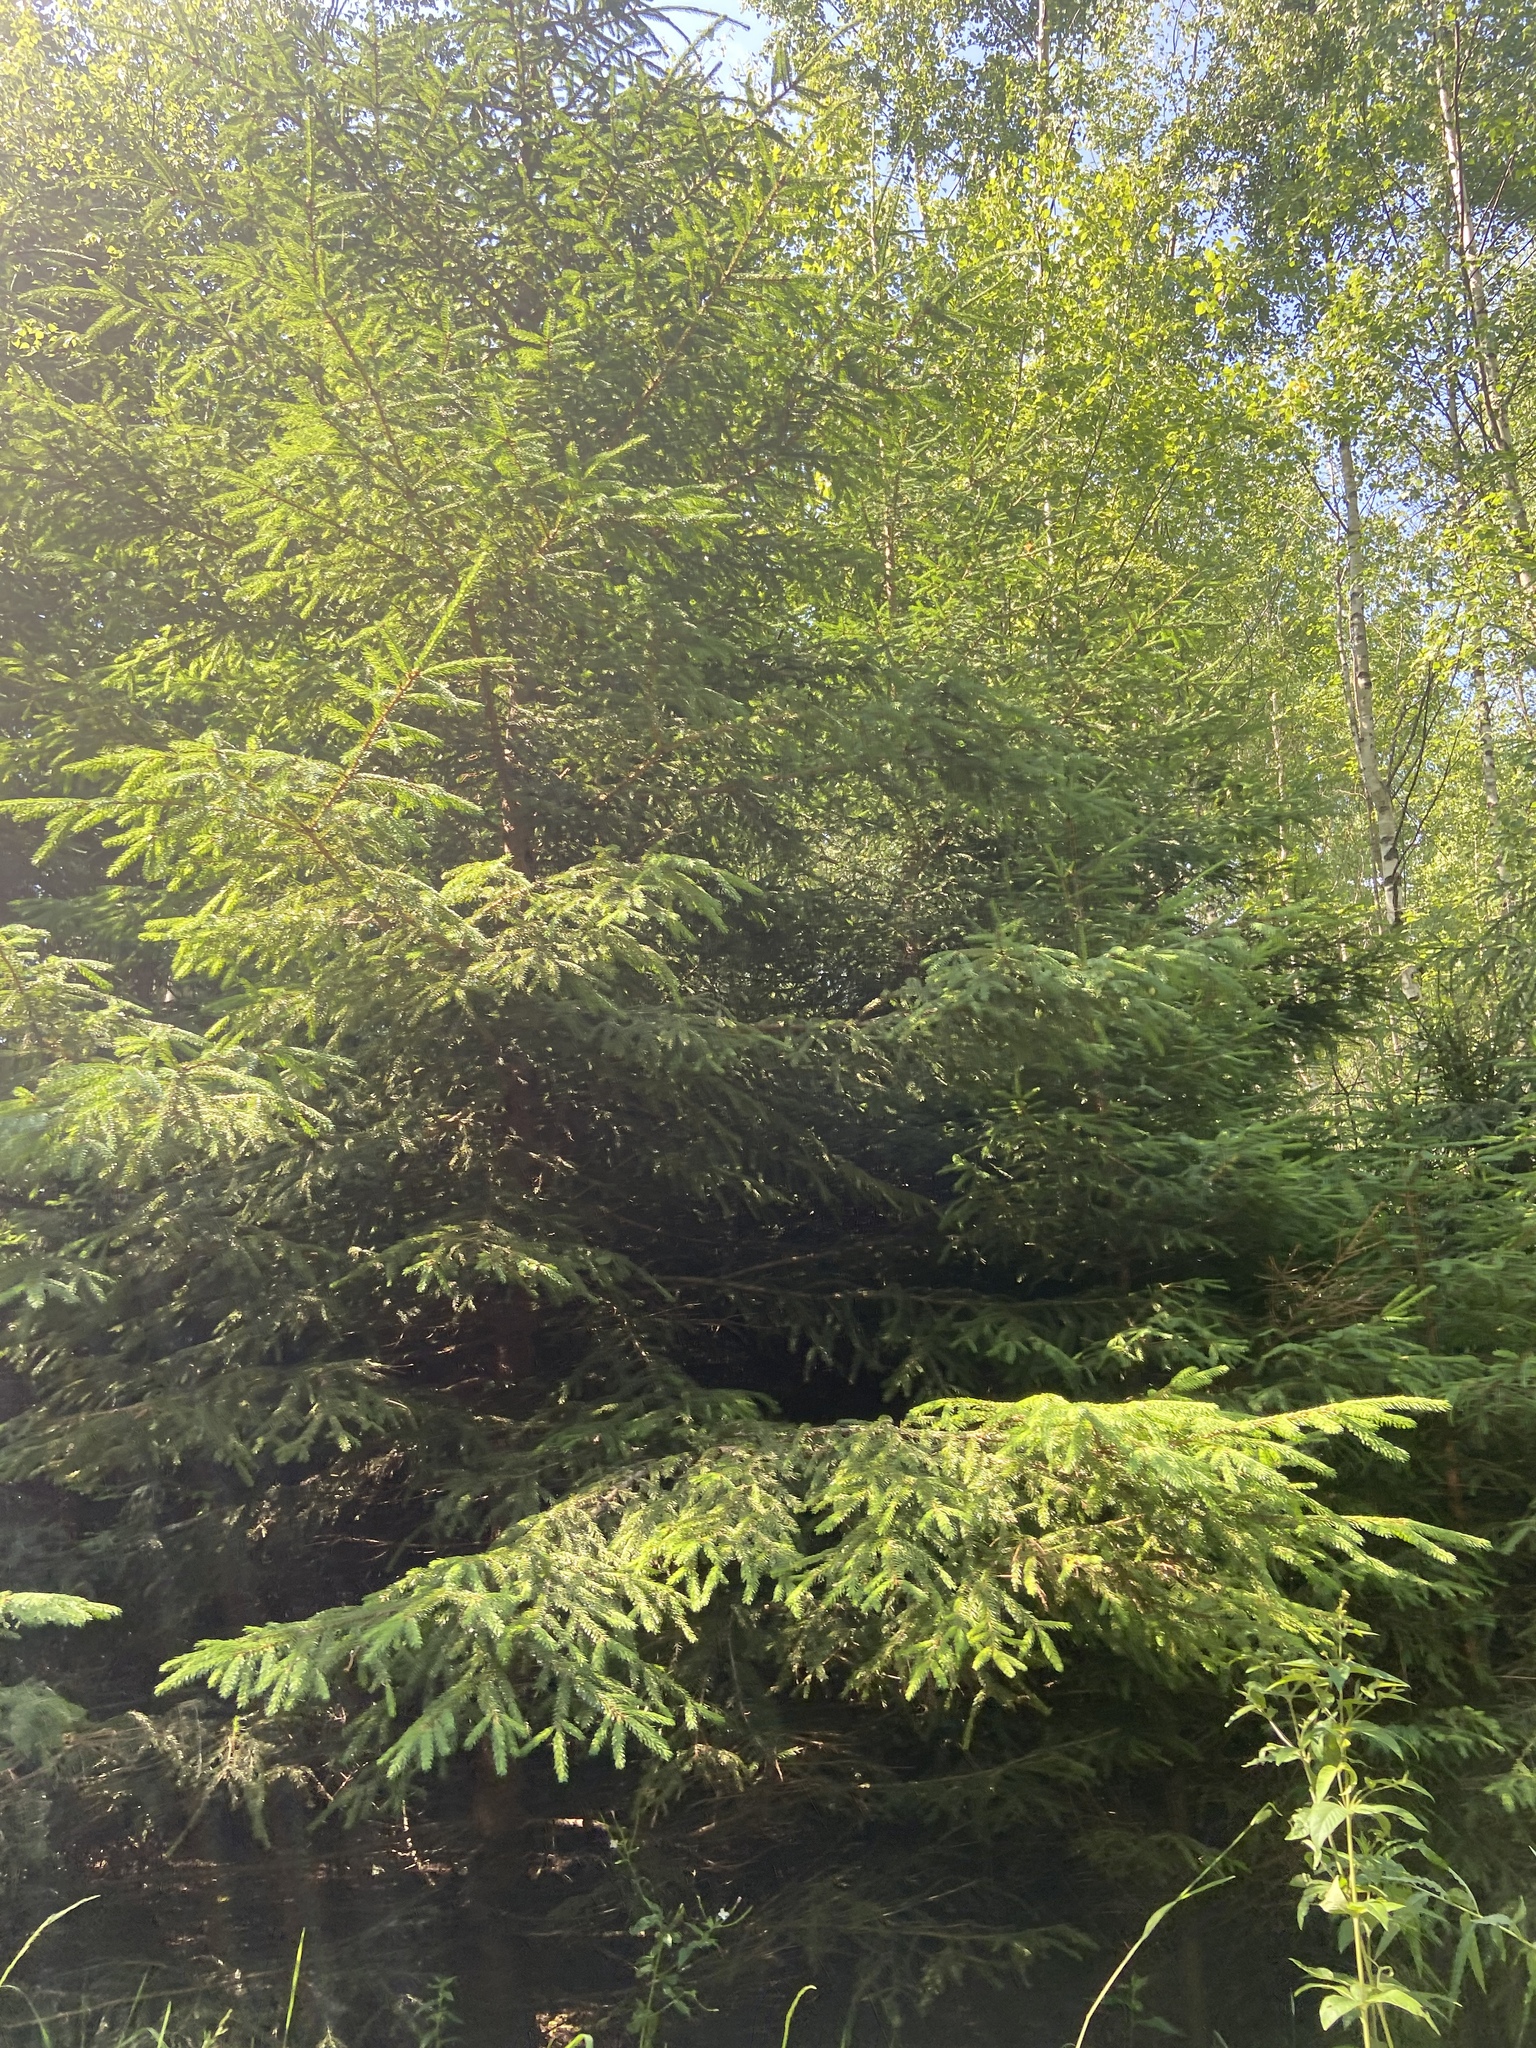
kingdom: Plantae
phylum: Tracheophyta
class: Pinopsida
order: Pinales
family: Pinaceae
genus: Picea
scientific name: Picea abies
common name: Norway spruce
